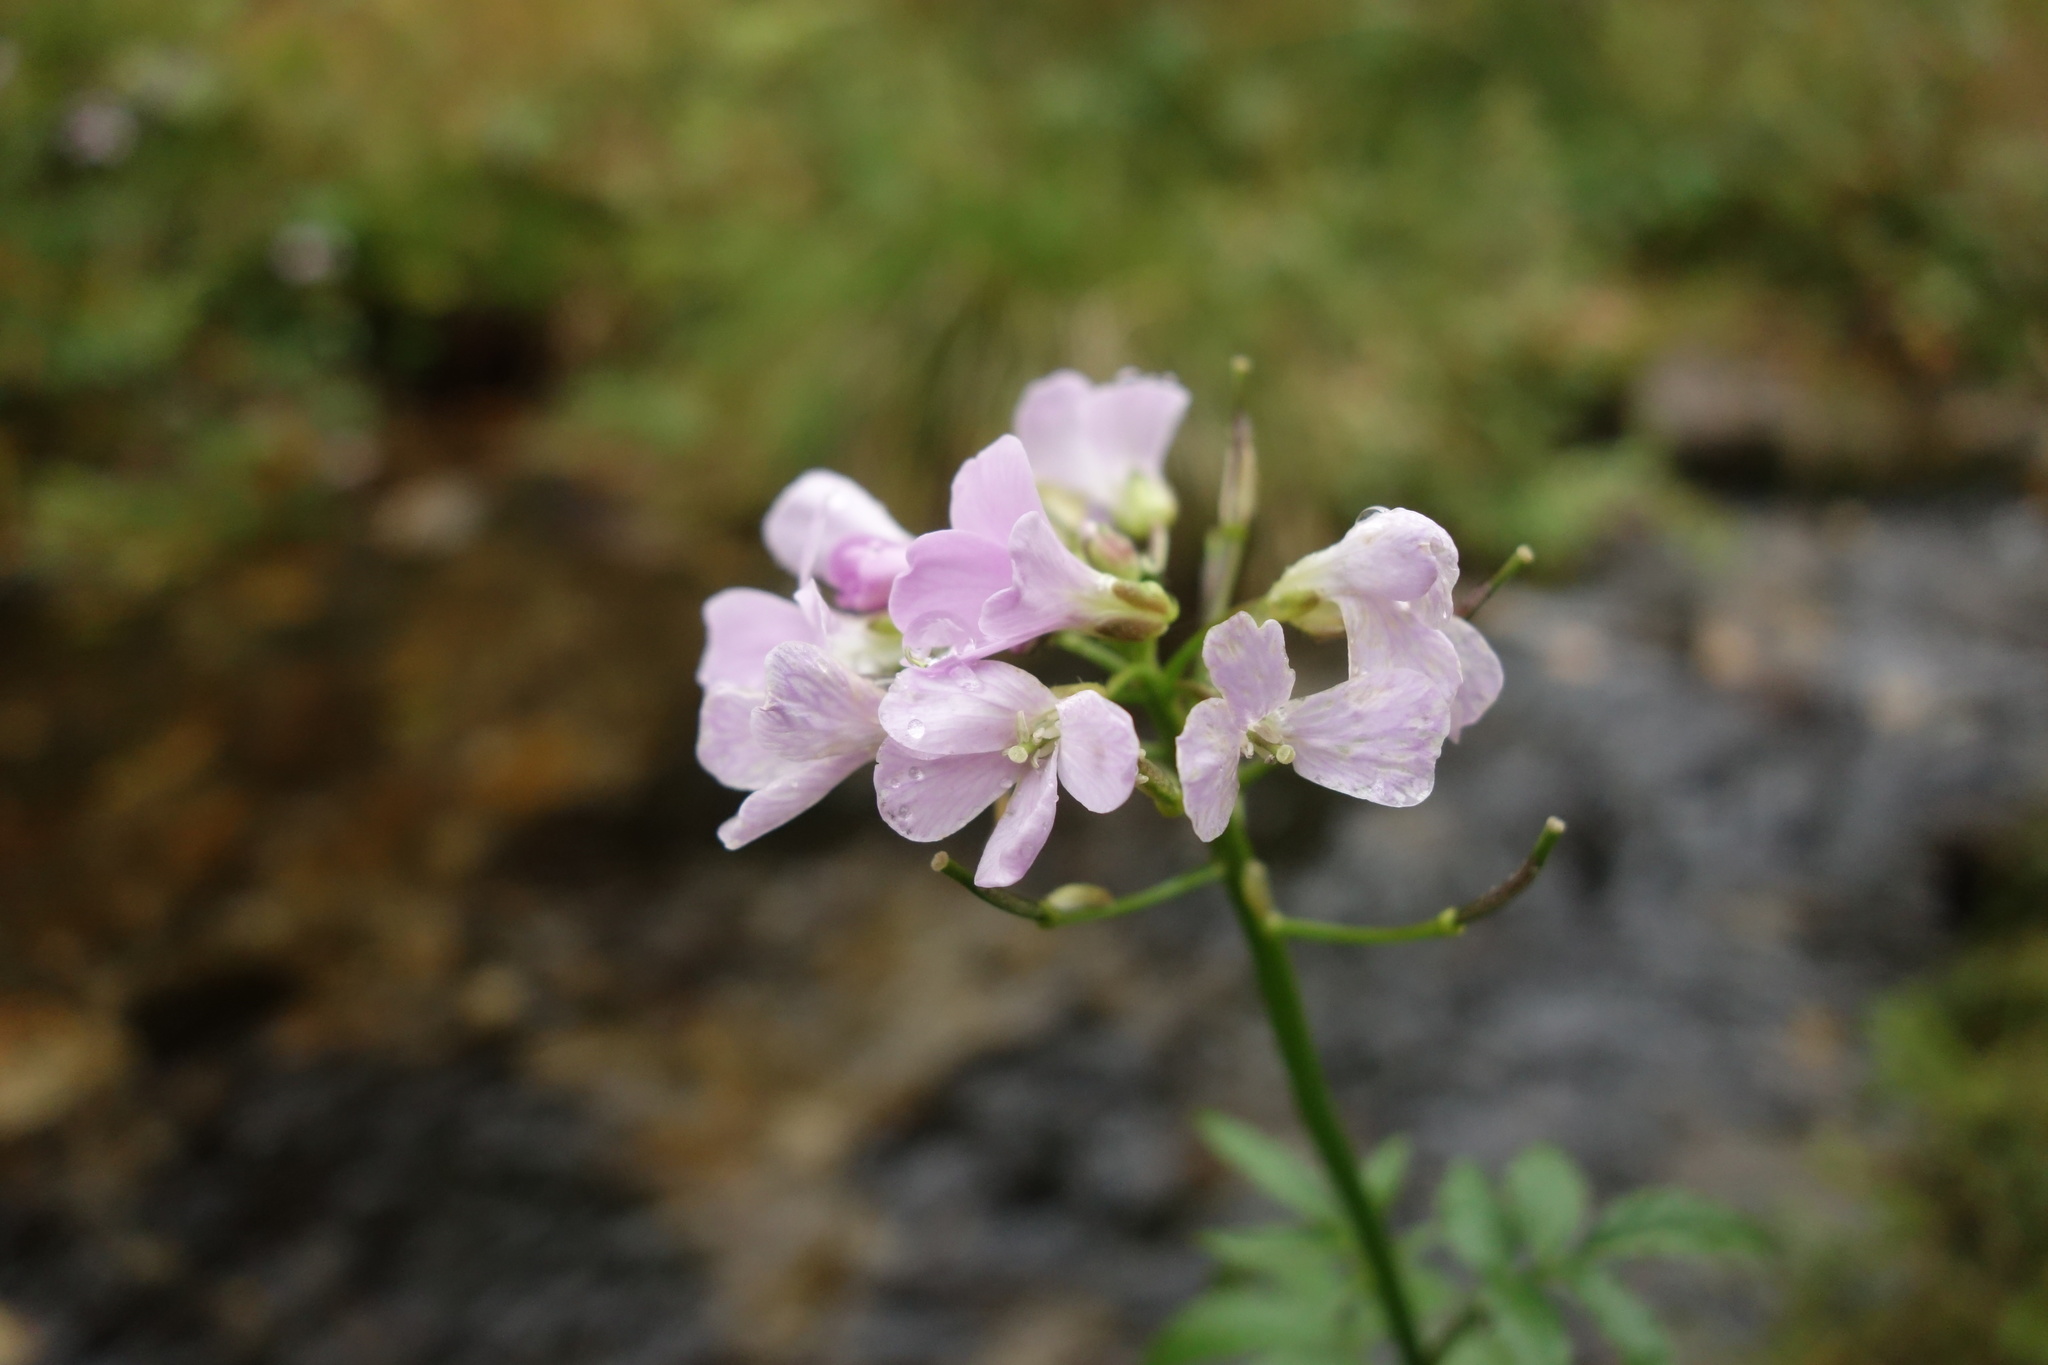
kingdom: Plantae
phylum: Tracheophyta
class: Magnoliopsida
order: Brassicales
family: Brassicaceae
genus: Cardamine
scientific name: Cardamine macrophylla
